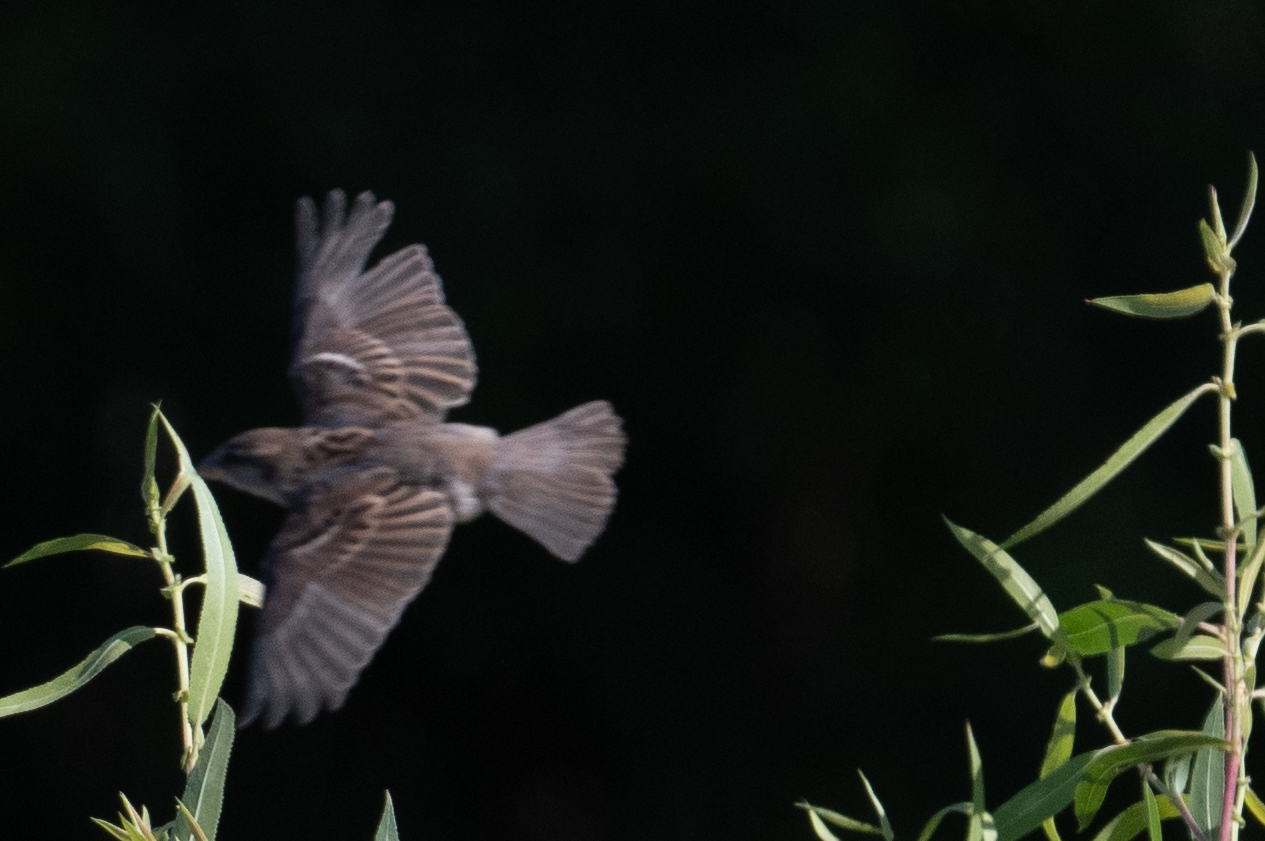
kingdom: Animalia
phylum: Chordata
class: Aves
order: Passeriformes
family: Passeridae
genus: Passer
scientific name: Passer domesticus
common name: House sparrow
